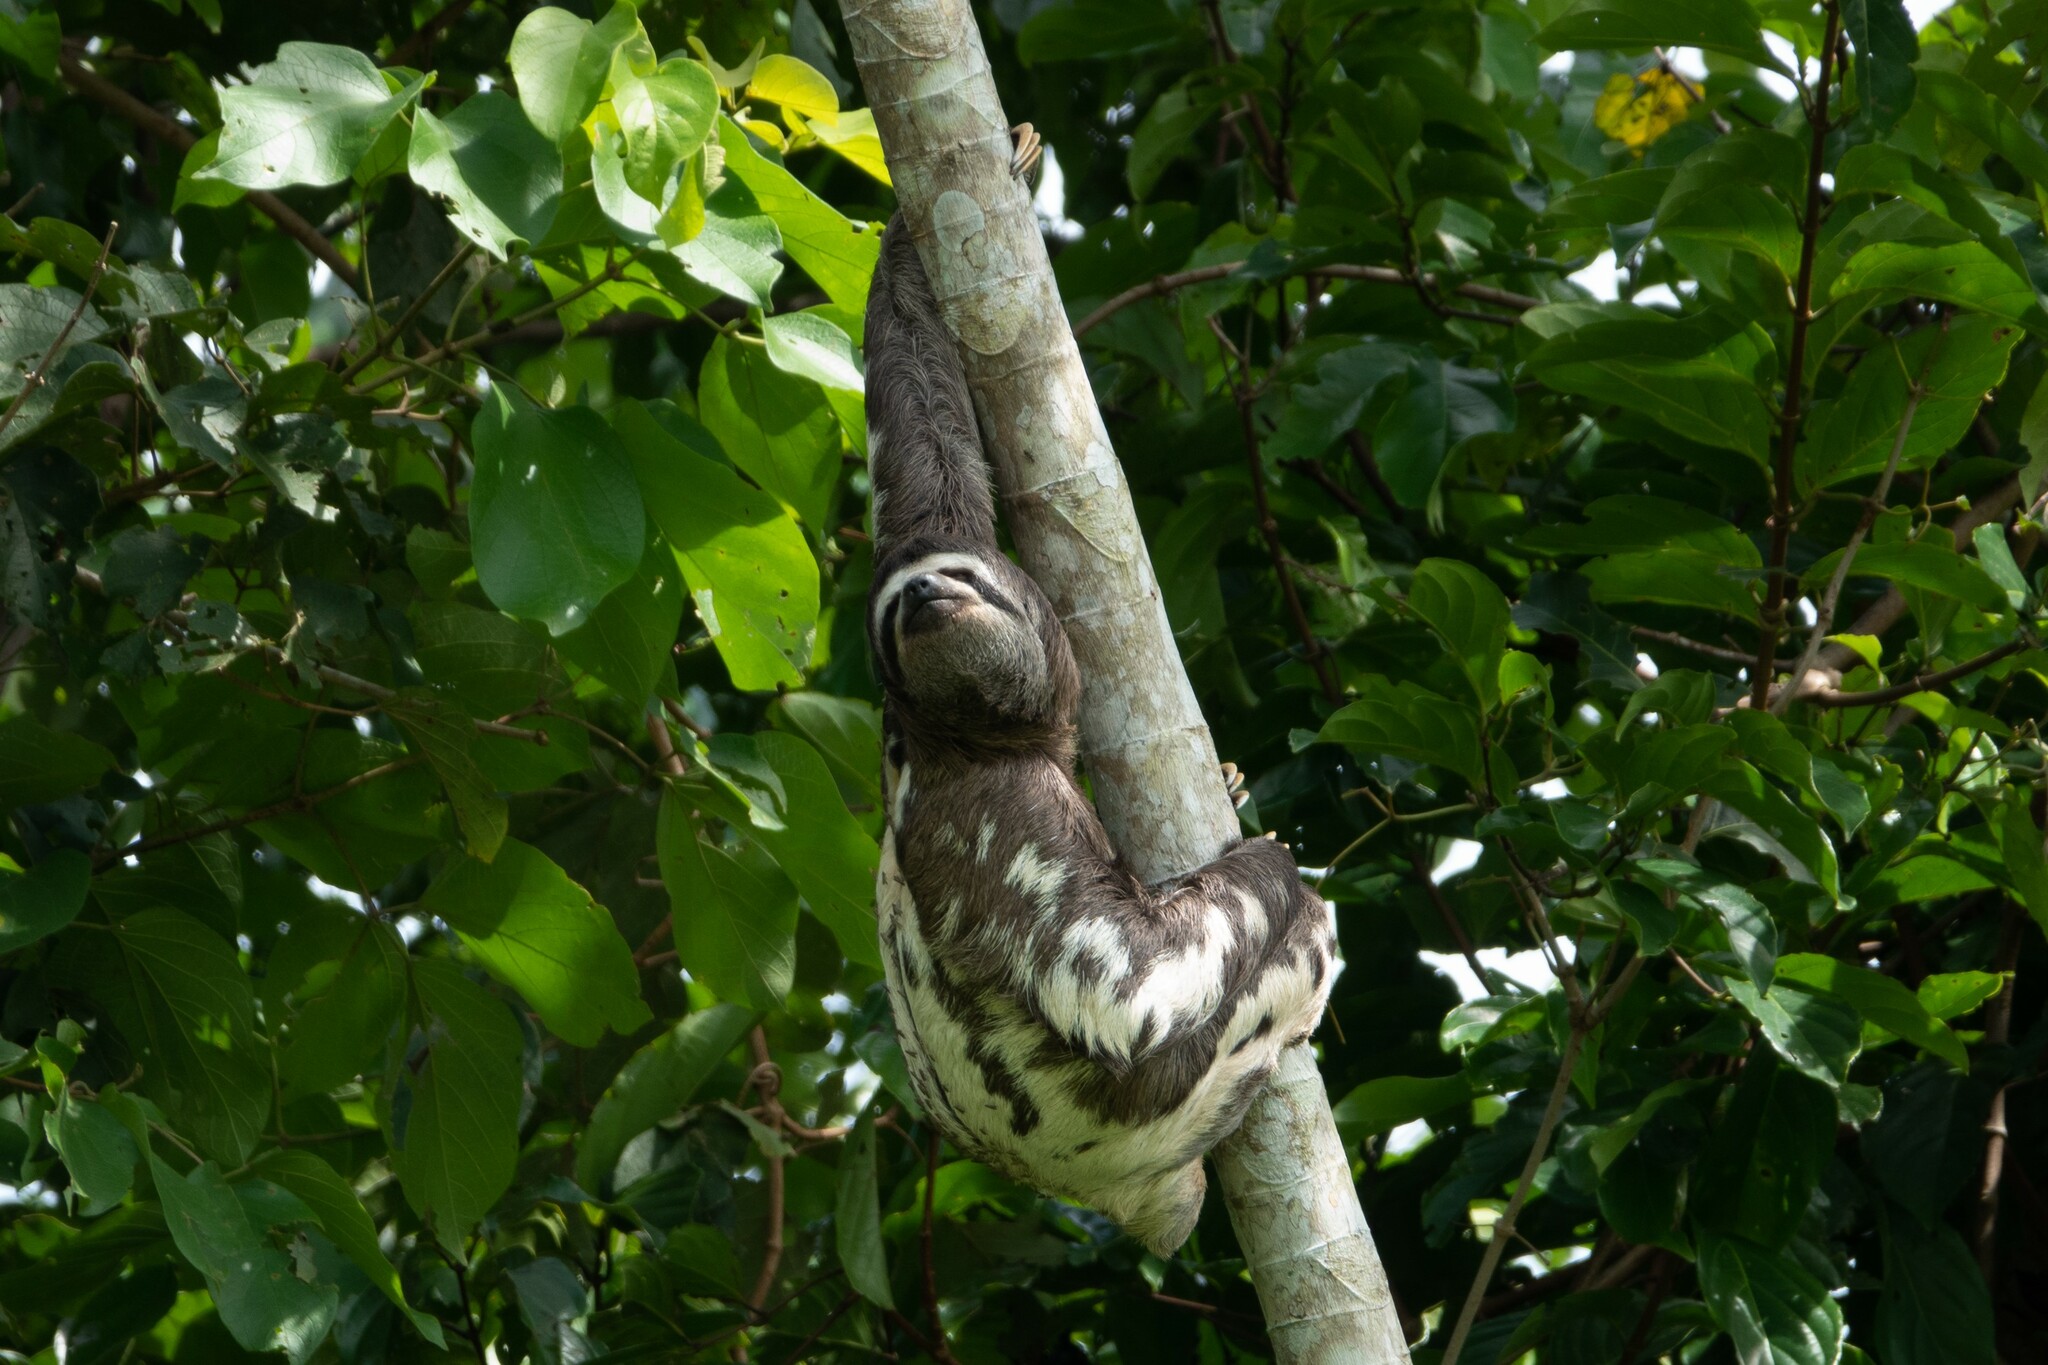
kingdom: Animalia
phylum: Chordata
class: Mammalia
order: Pilosa
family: Bradypodidae
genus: Bradypus
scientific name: Bradypus variegatus
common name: Brown-throated three-toed sloth
